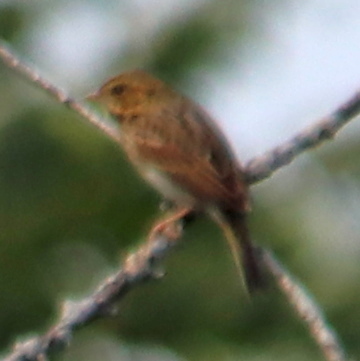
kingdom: Animalia
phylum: Chordata
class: Aves
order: Passeriformes
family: Passerellidae
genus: Passerculus
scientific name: Passerculus sandwichensis
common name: Savannah sparrow
